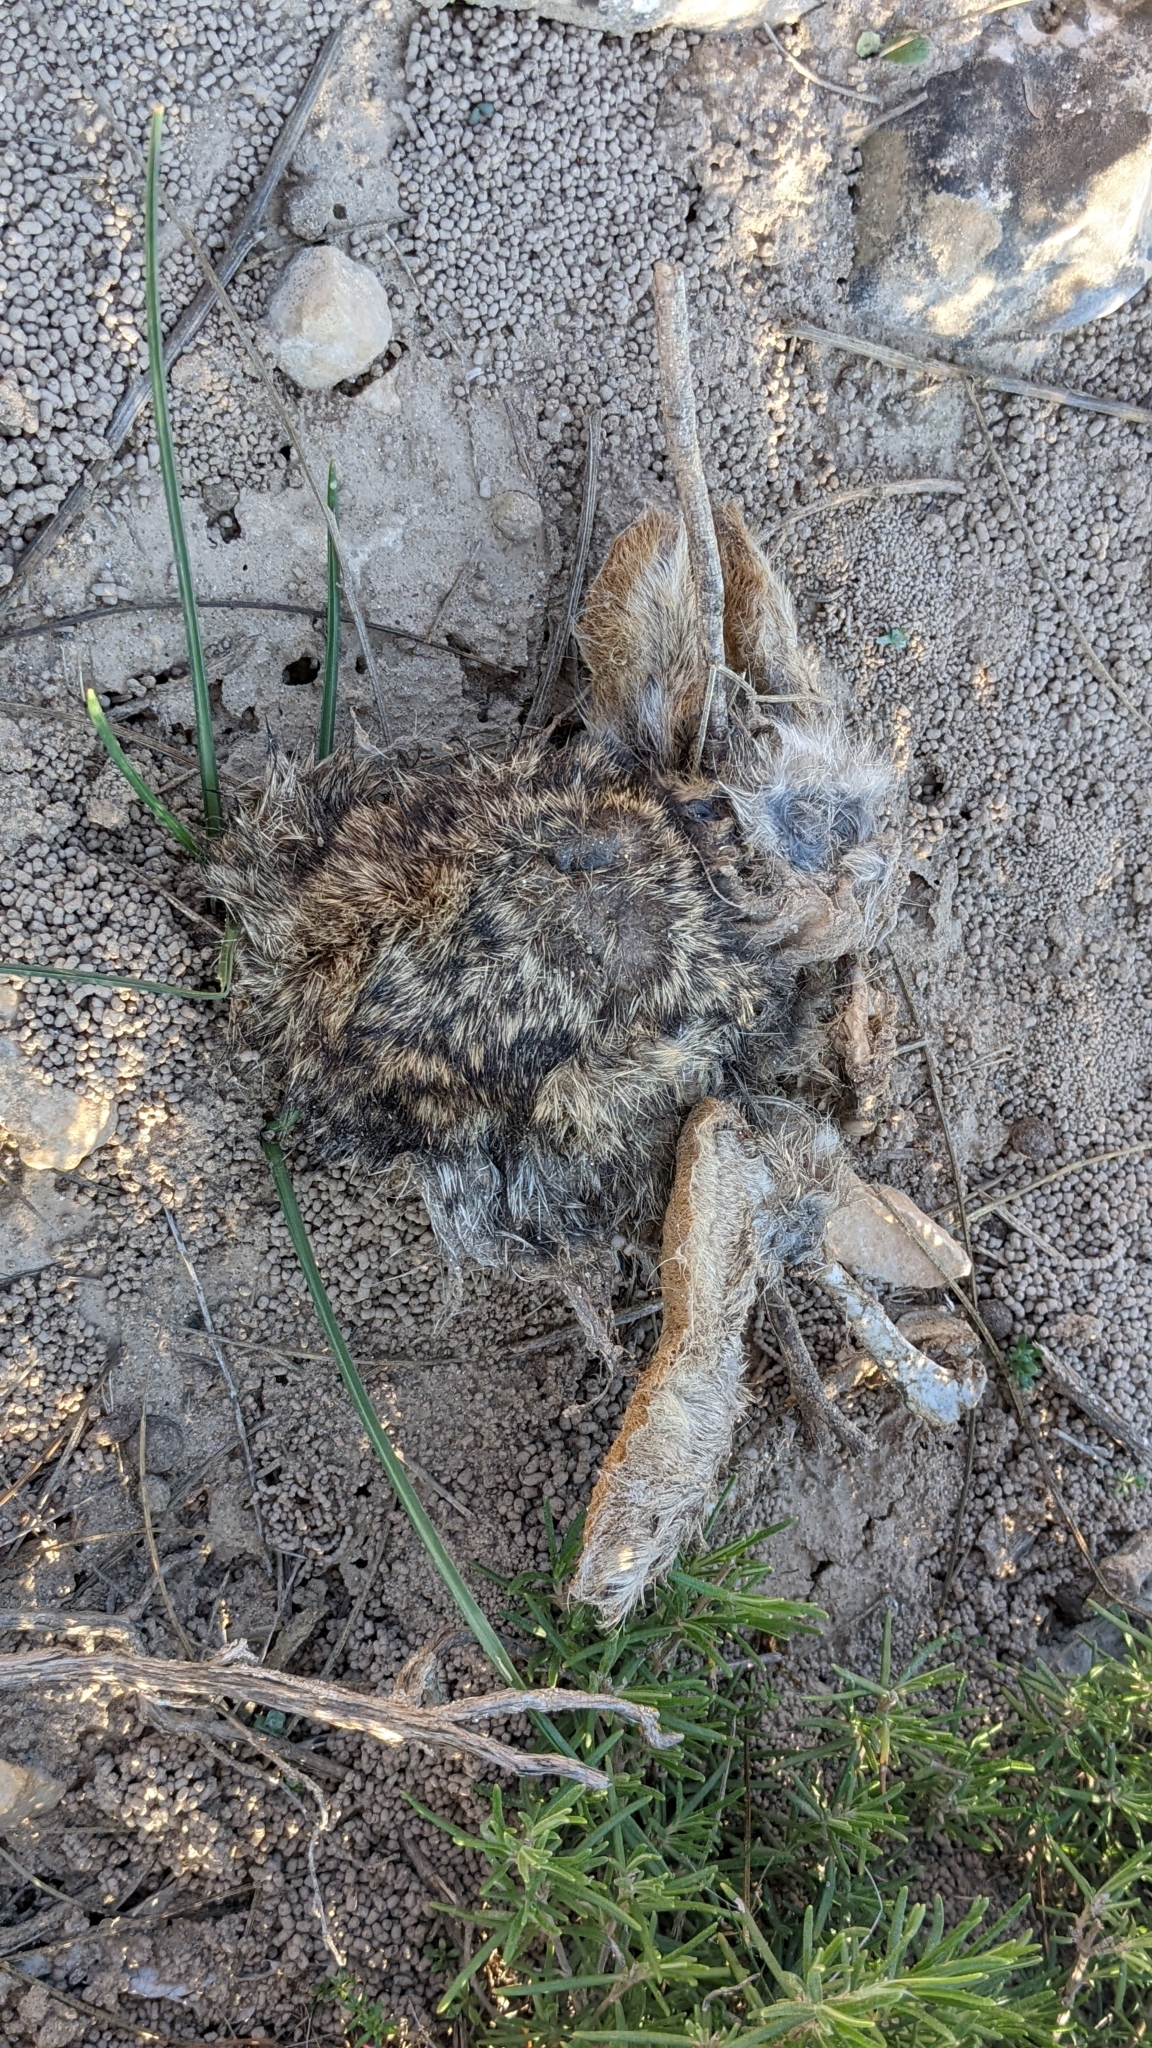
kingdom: Animalia
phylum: Chordata
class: Mammalia
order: Lagomorpha
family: Leporidae
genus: Oryctolagus
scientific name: Oryctolagus cuniculus
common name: European rabbit
